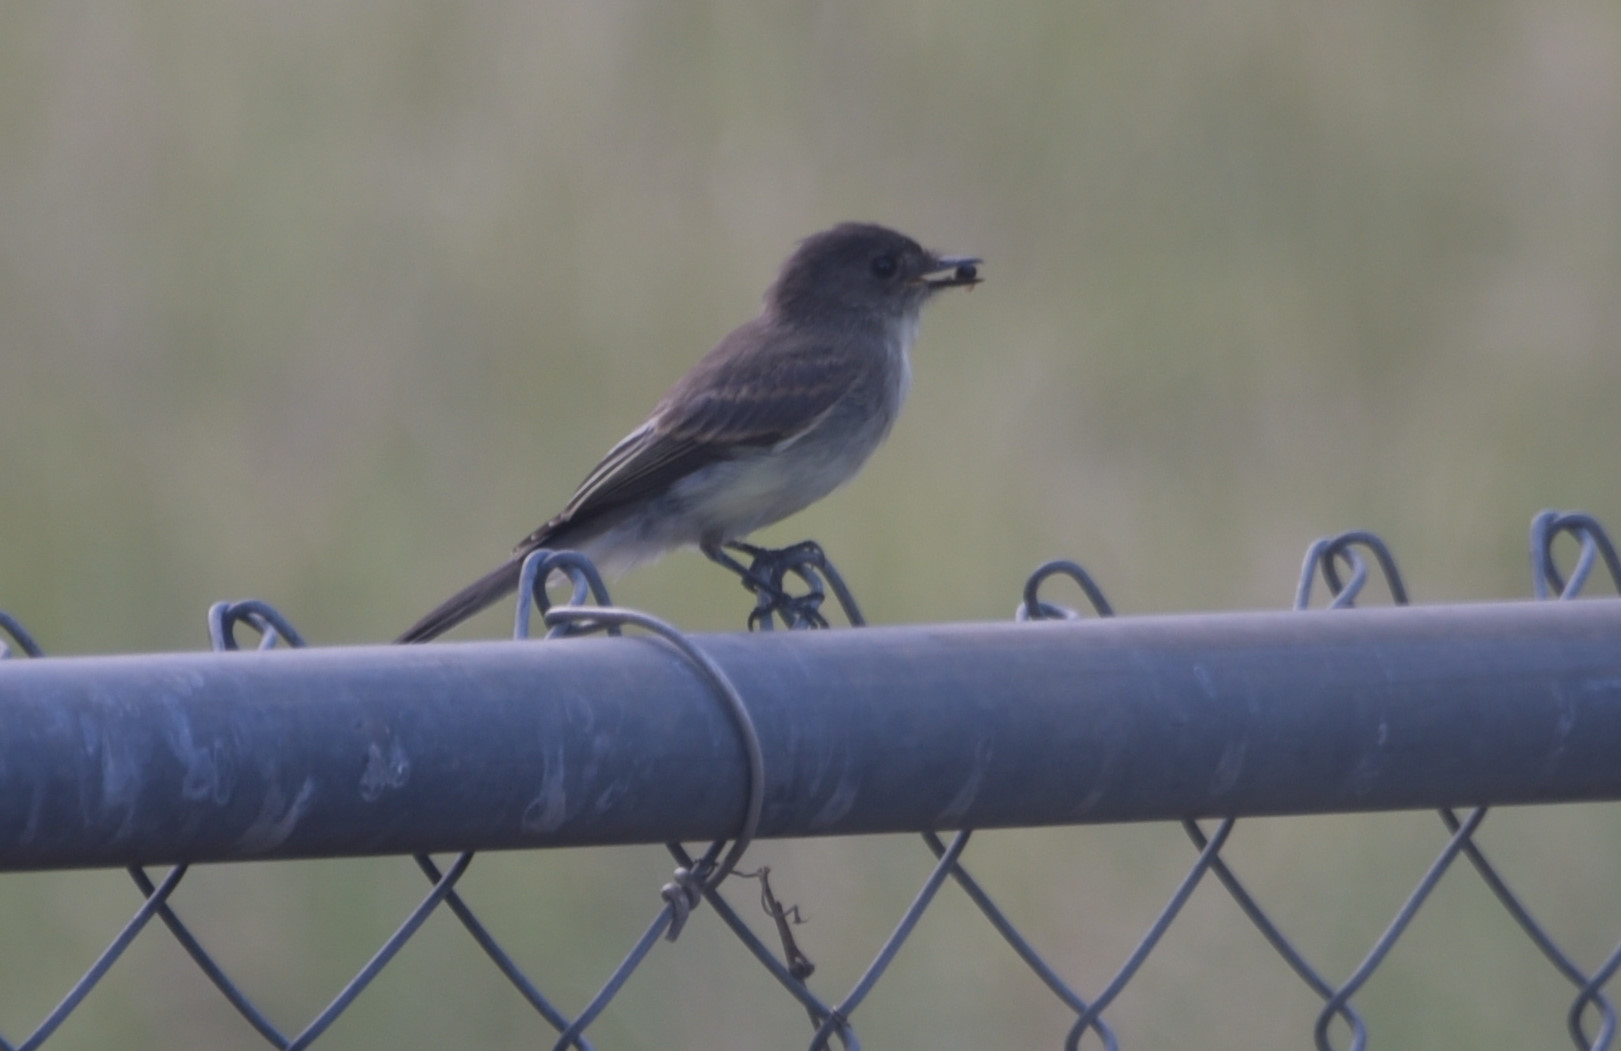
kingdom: Animalia
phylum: Chordata
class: Aves
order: Passeriformes
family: Tyrannidae
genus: Sayornis
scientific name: Sayornis phoebe
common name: Eastern phoebe
